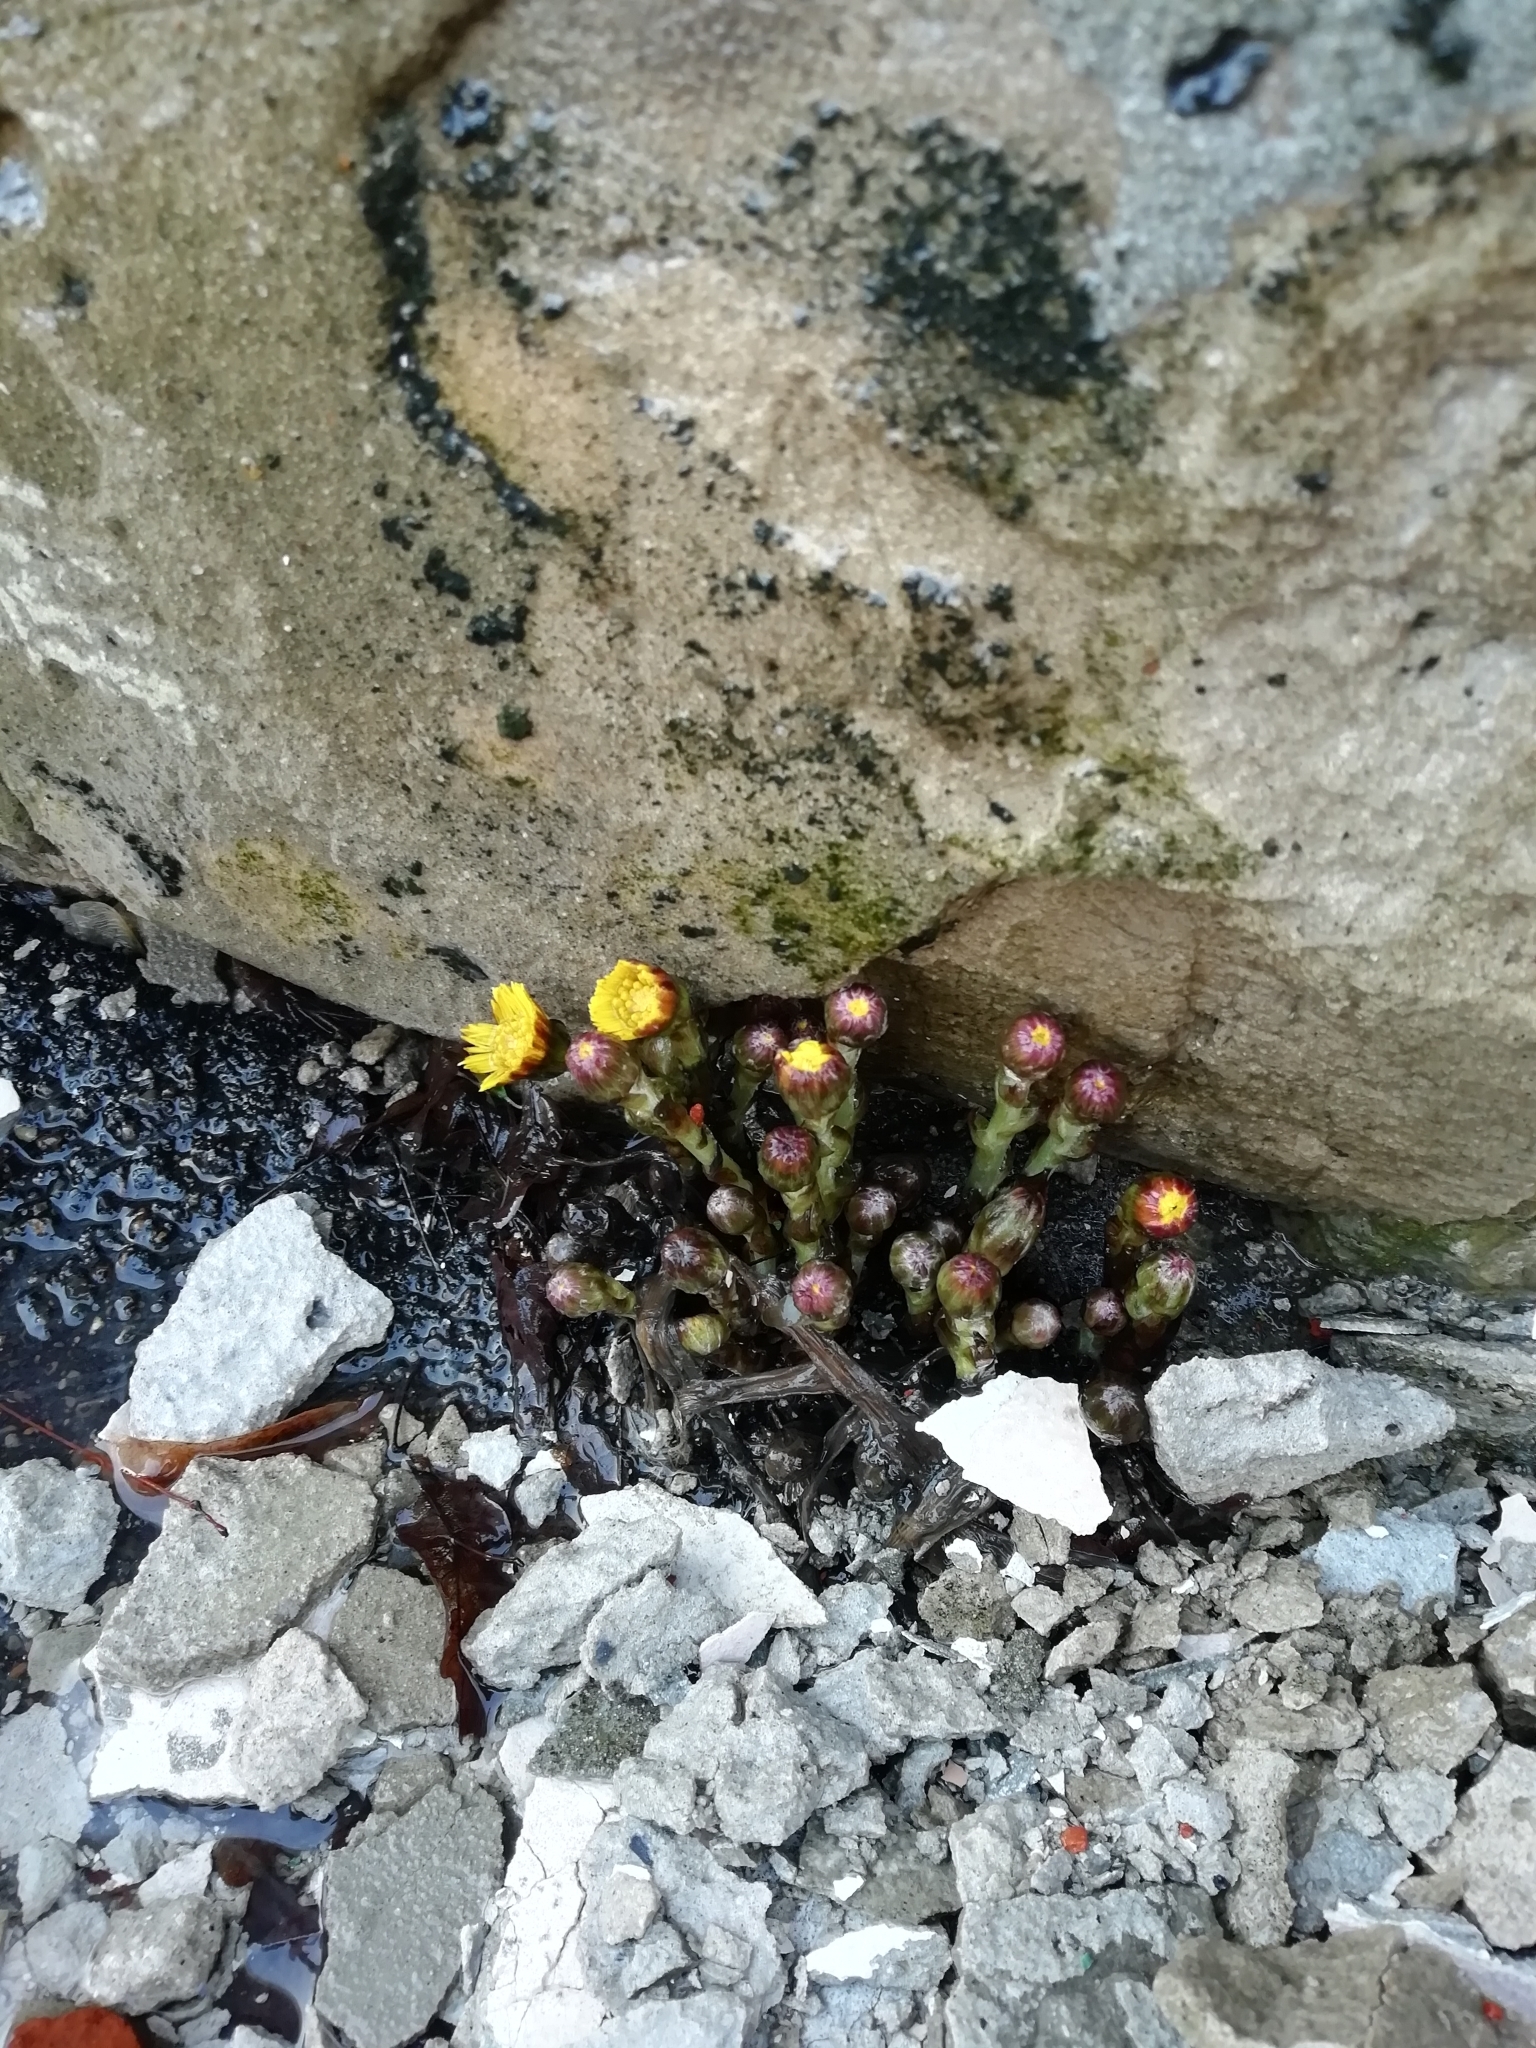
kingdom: Plantae
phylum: Tracheophyta
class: Magnoliopsida
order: Asterales
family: Asteraceae
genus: Tussilago
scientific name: Tussilago farfara
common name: Coltsfoot
